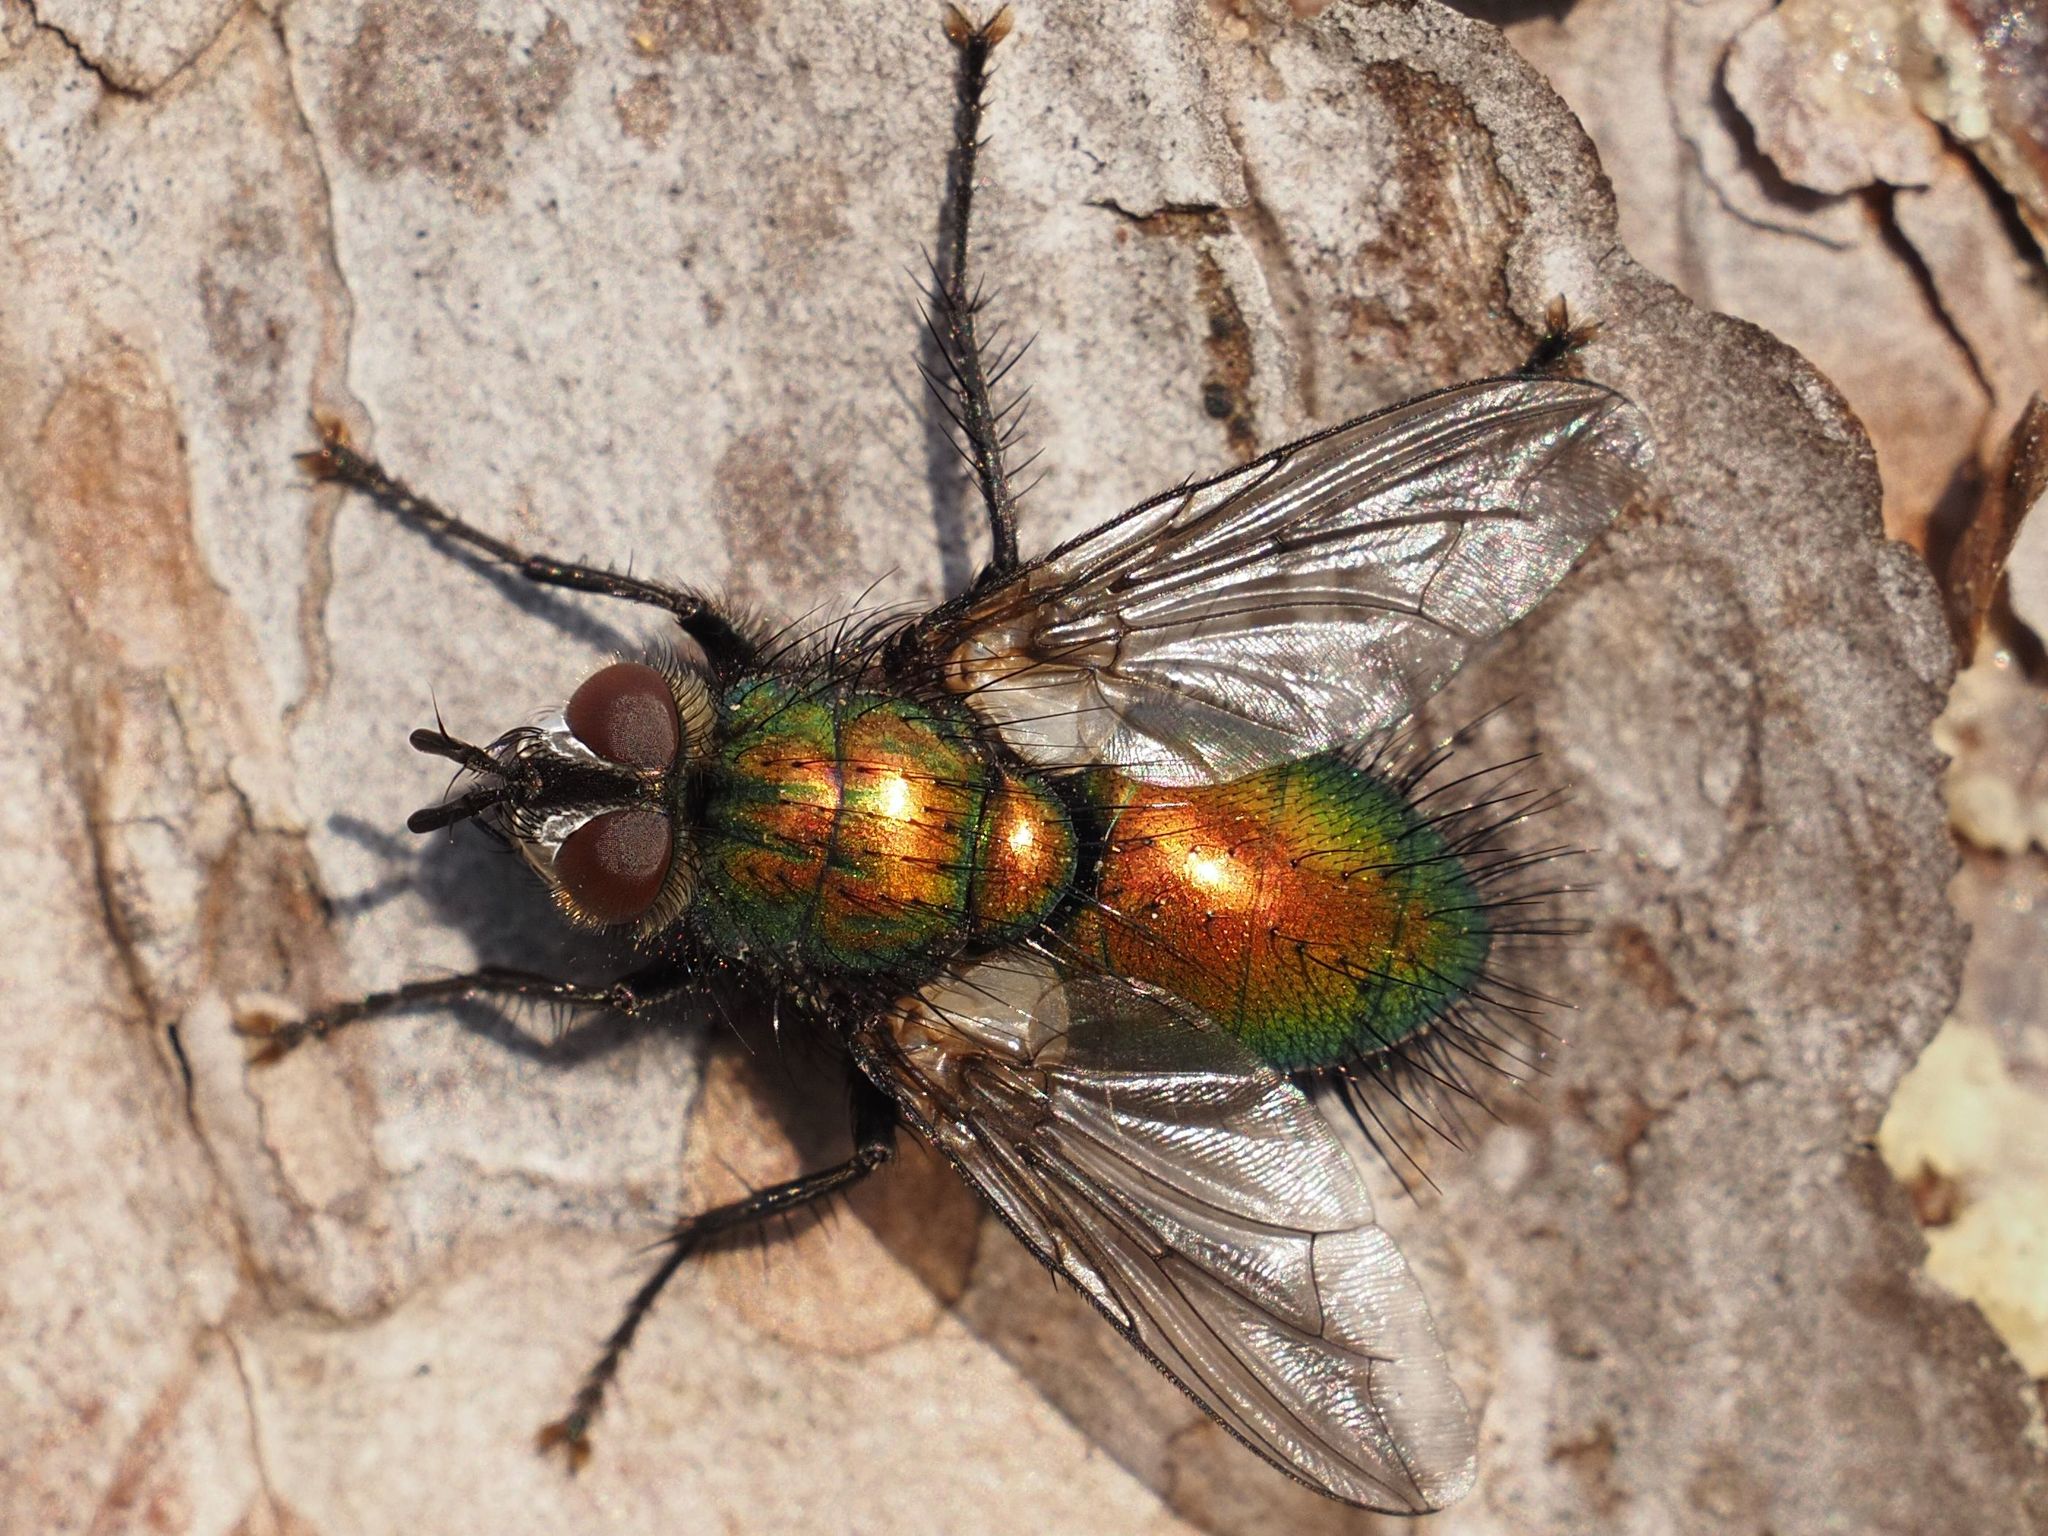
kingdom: Animalia
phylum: Arthropoda
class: Insecta
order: Diptera
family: Tachinidae
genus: Gymnocheta
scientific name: Gymnocheta viridis
